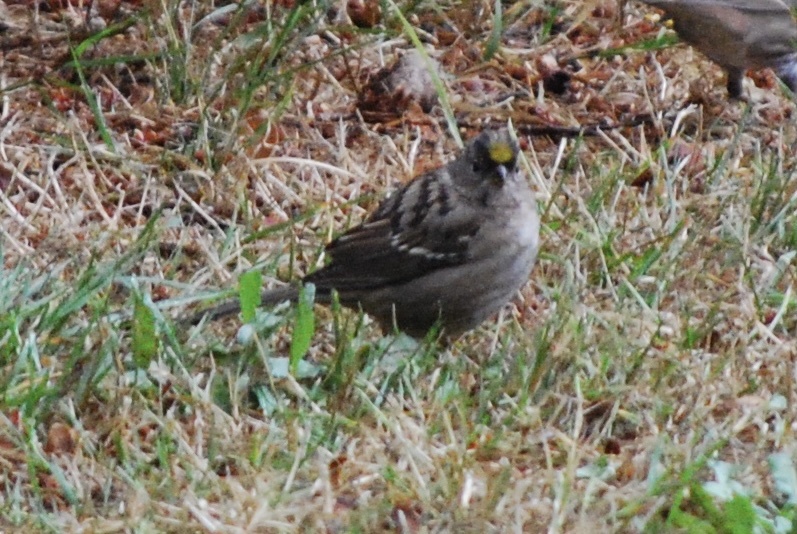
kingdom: Animalia
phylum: Chordata
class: Aves
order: Passeriformes
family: Passerellidae
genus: Zonotrichia
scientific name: Zonotrichia atricapilla
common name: Golden-crowned sparrow
